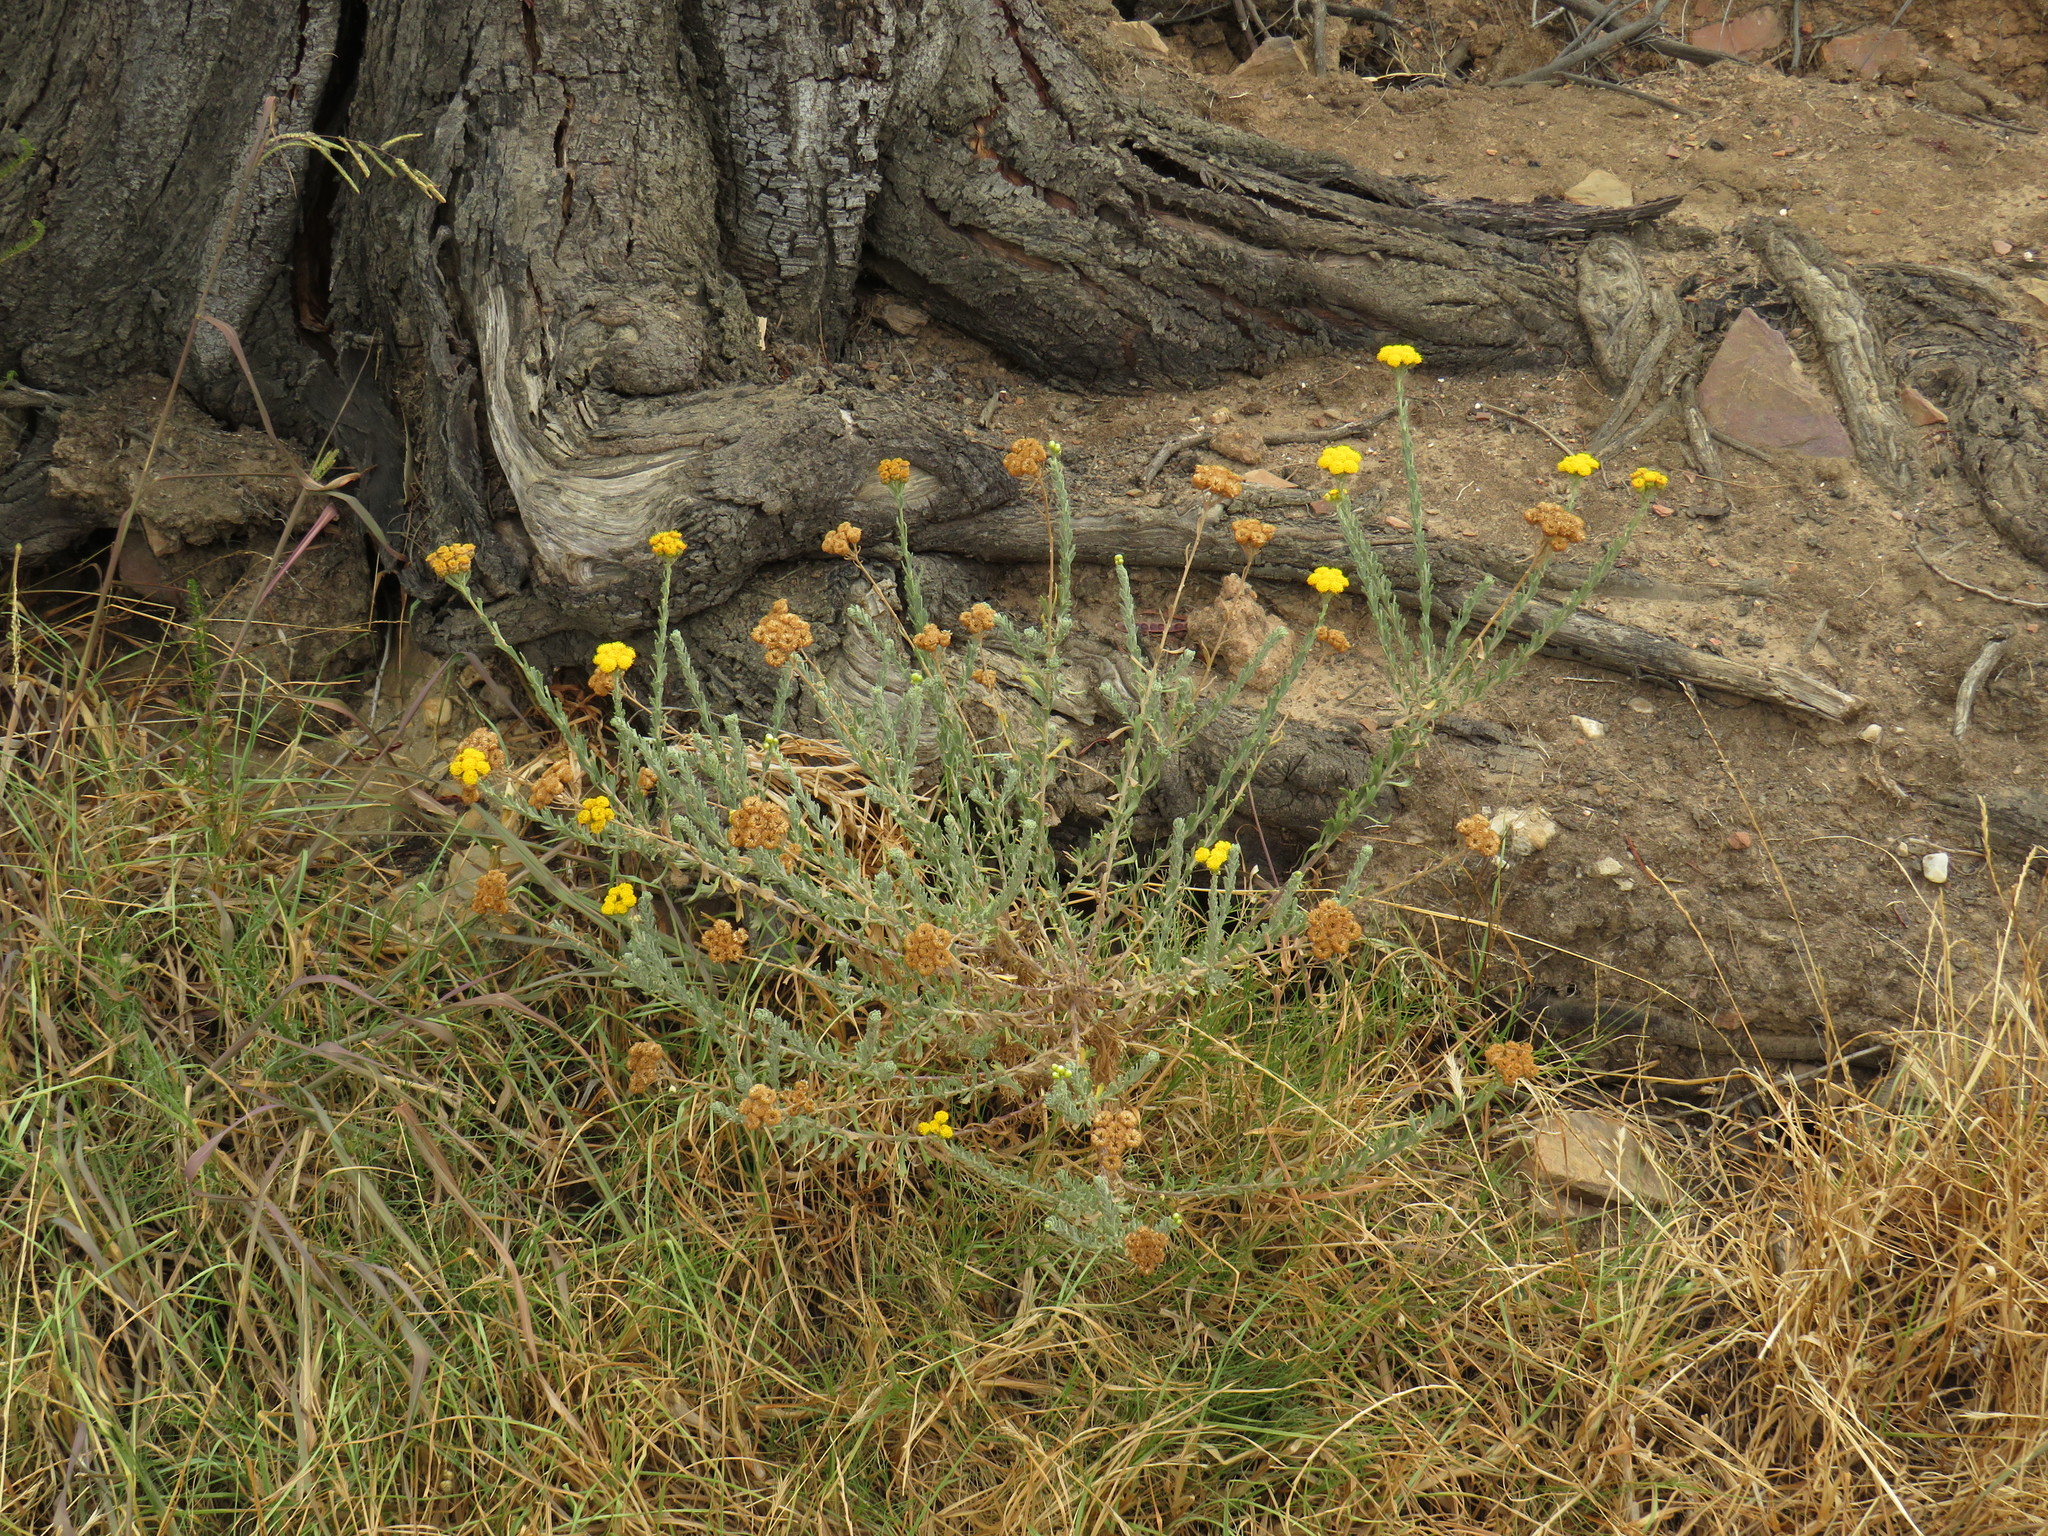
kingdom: Plantae
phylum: Tracheophyta
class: Magnoliopsida
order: Asterales
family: Asteraceae
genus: Athanasia
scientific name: Athanasia trifurcata
